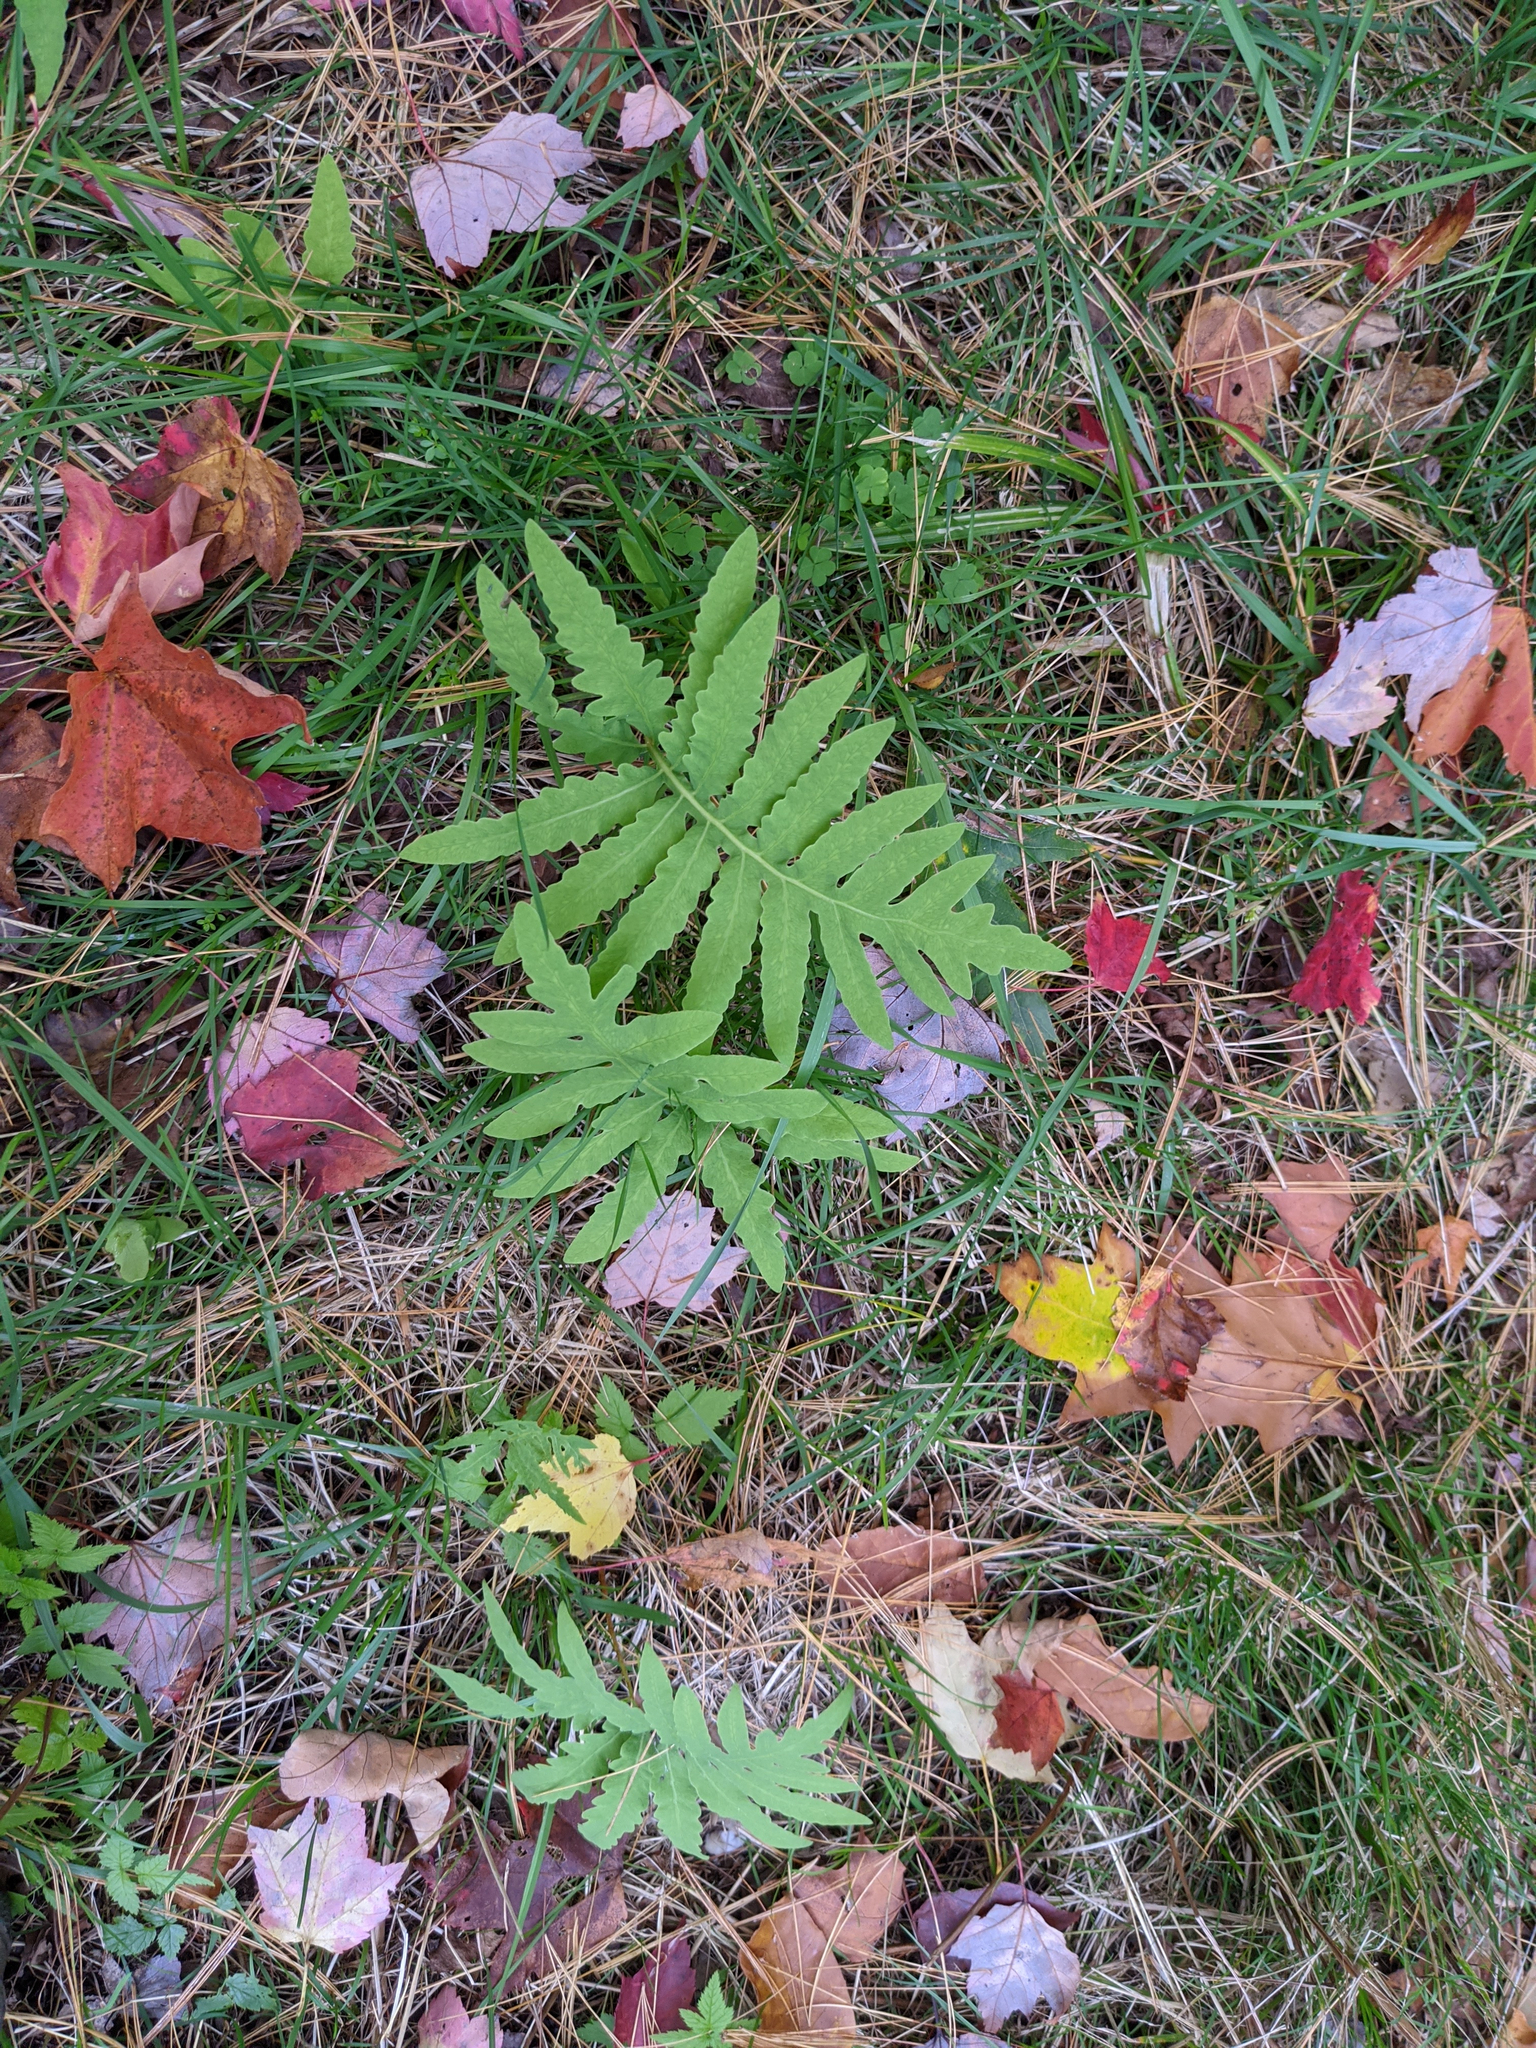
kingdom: Plantae
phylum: Tracheophyta
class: Polypodiopsida
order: Polypodiales
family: Onocleaceae
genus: Onoclea
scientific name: Onoclea sensibilis
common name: Sensitive fern
